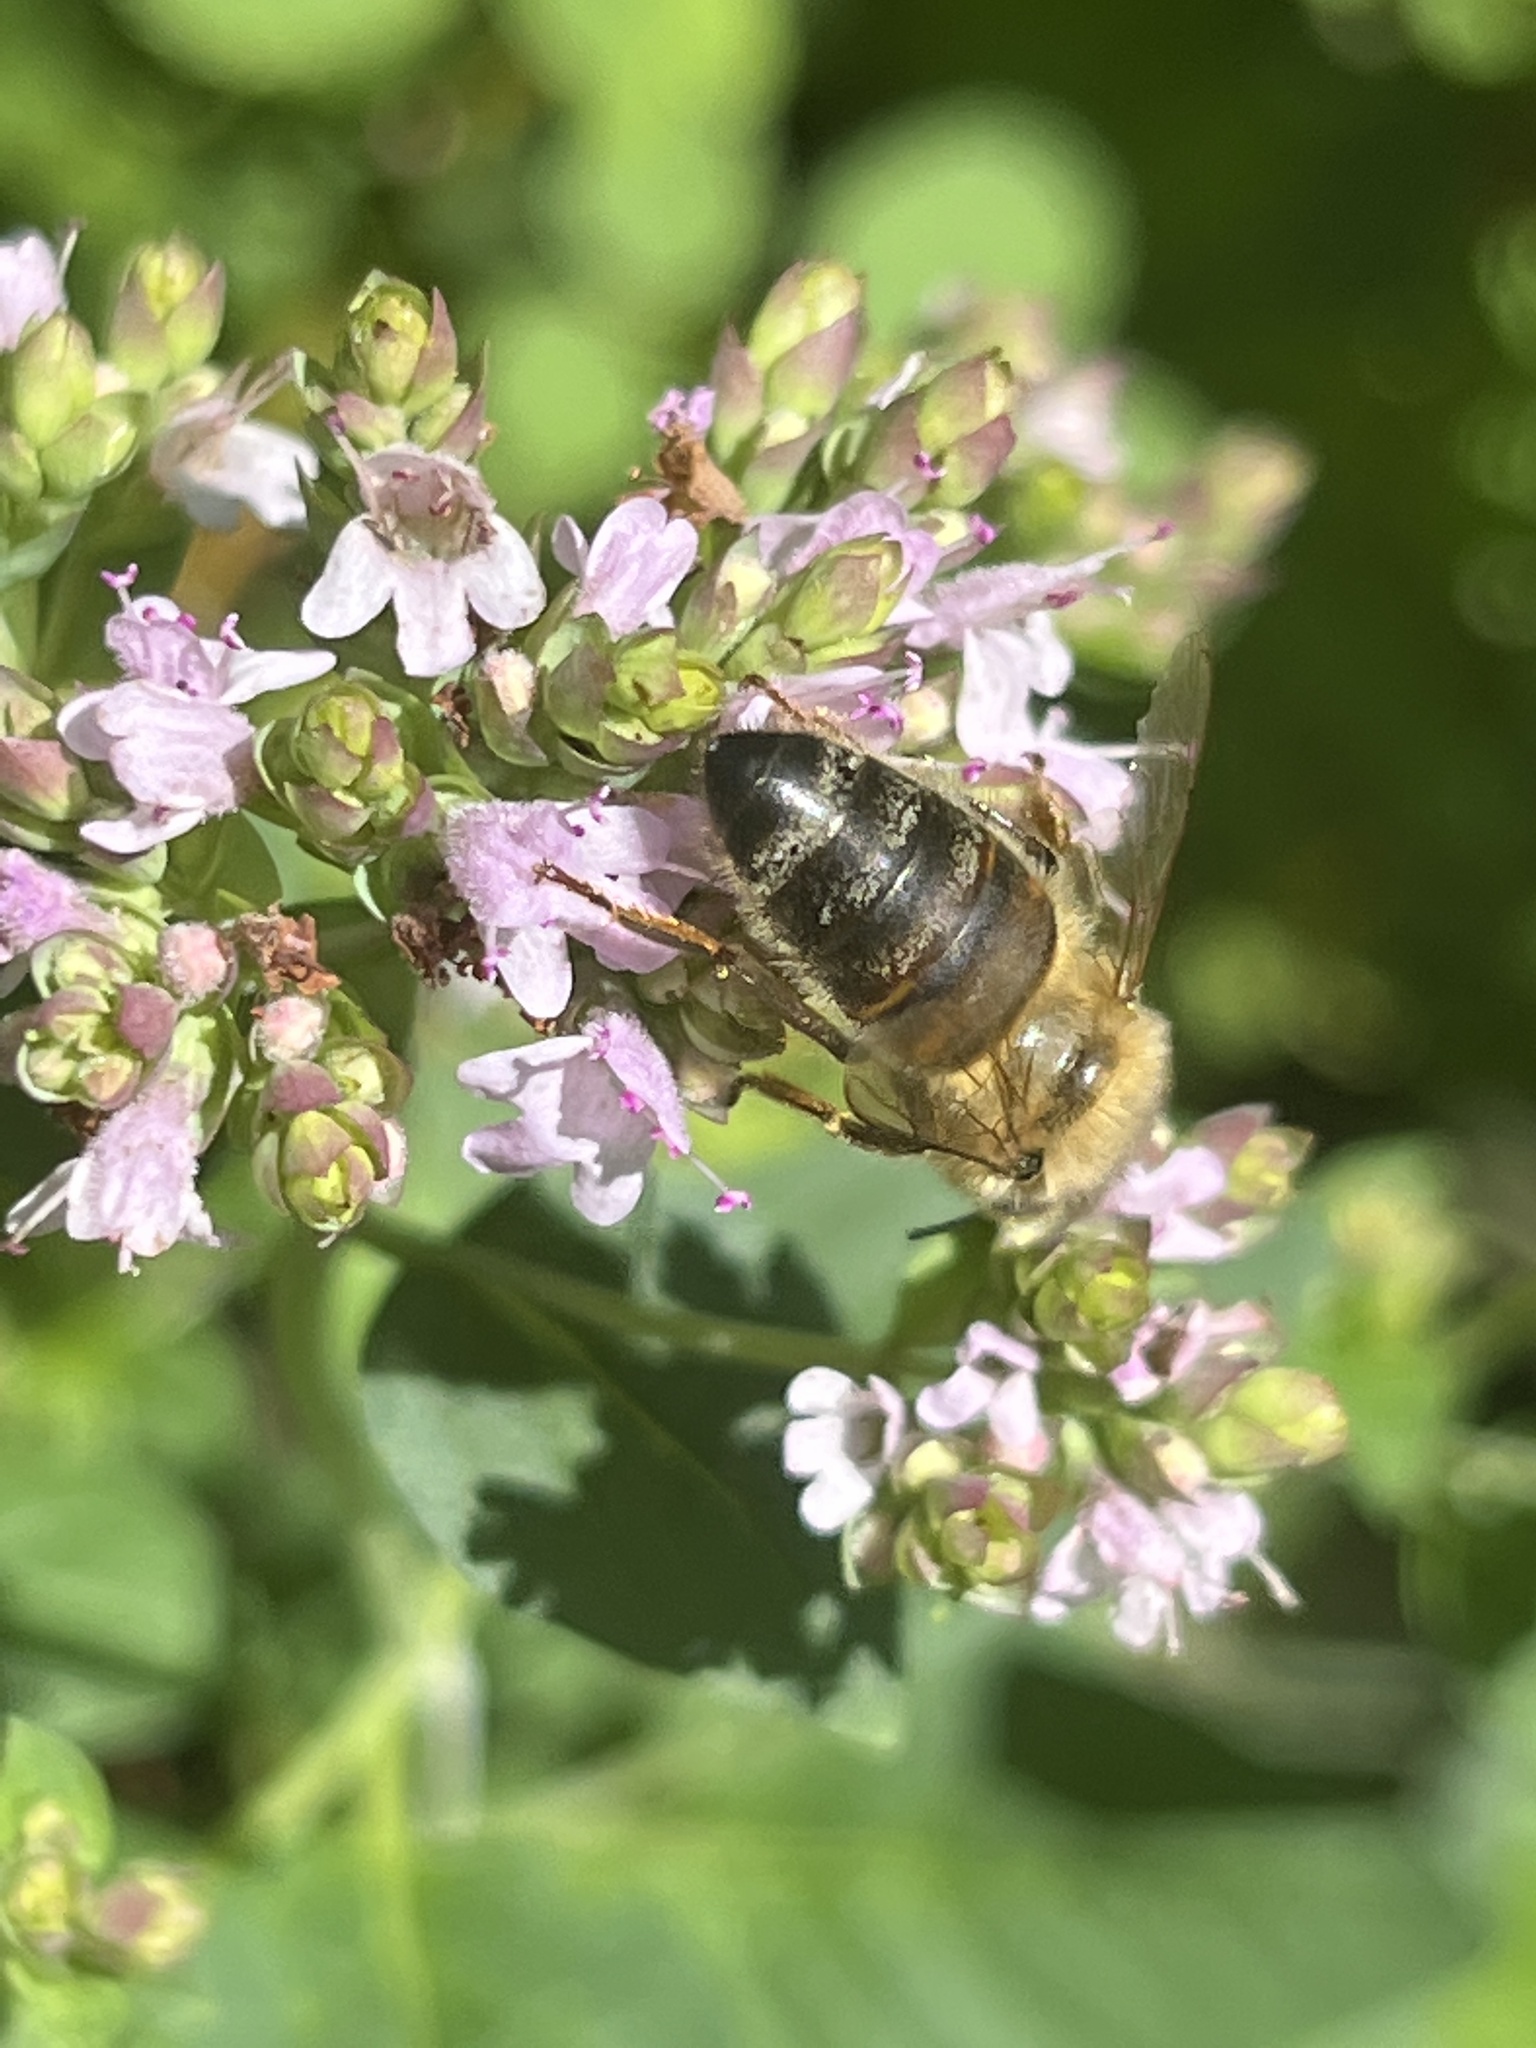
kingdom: Animalia
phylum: Arthropoda
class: Insecta
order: Hymenoptera
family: Apidae
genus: Apis
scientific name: Apis mellifera
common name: Honey bee
